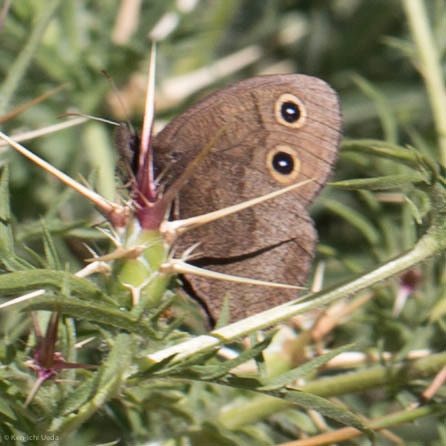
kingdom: Animalia
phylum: Arthropoda
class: Insecta
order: Lepidoptera
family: Nymphalidae
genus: Cercyonis
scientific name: Cercyonis pegala
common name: Common wood-nymph
